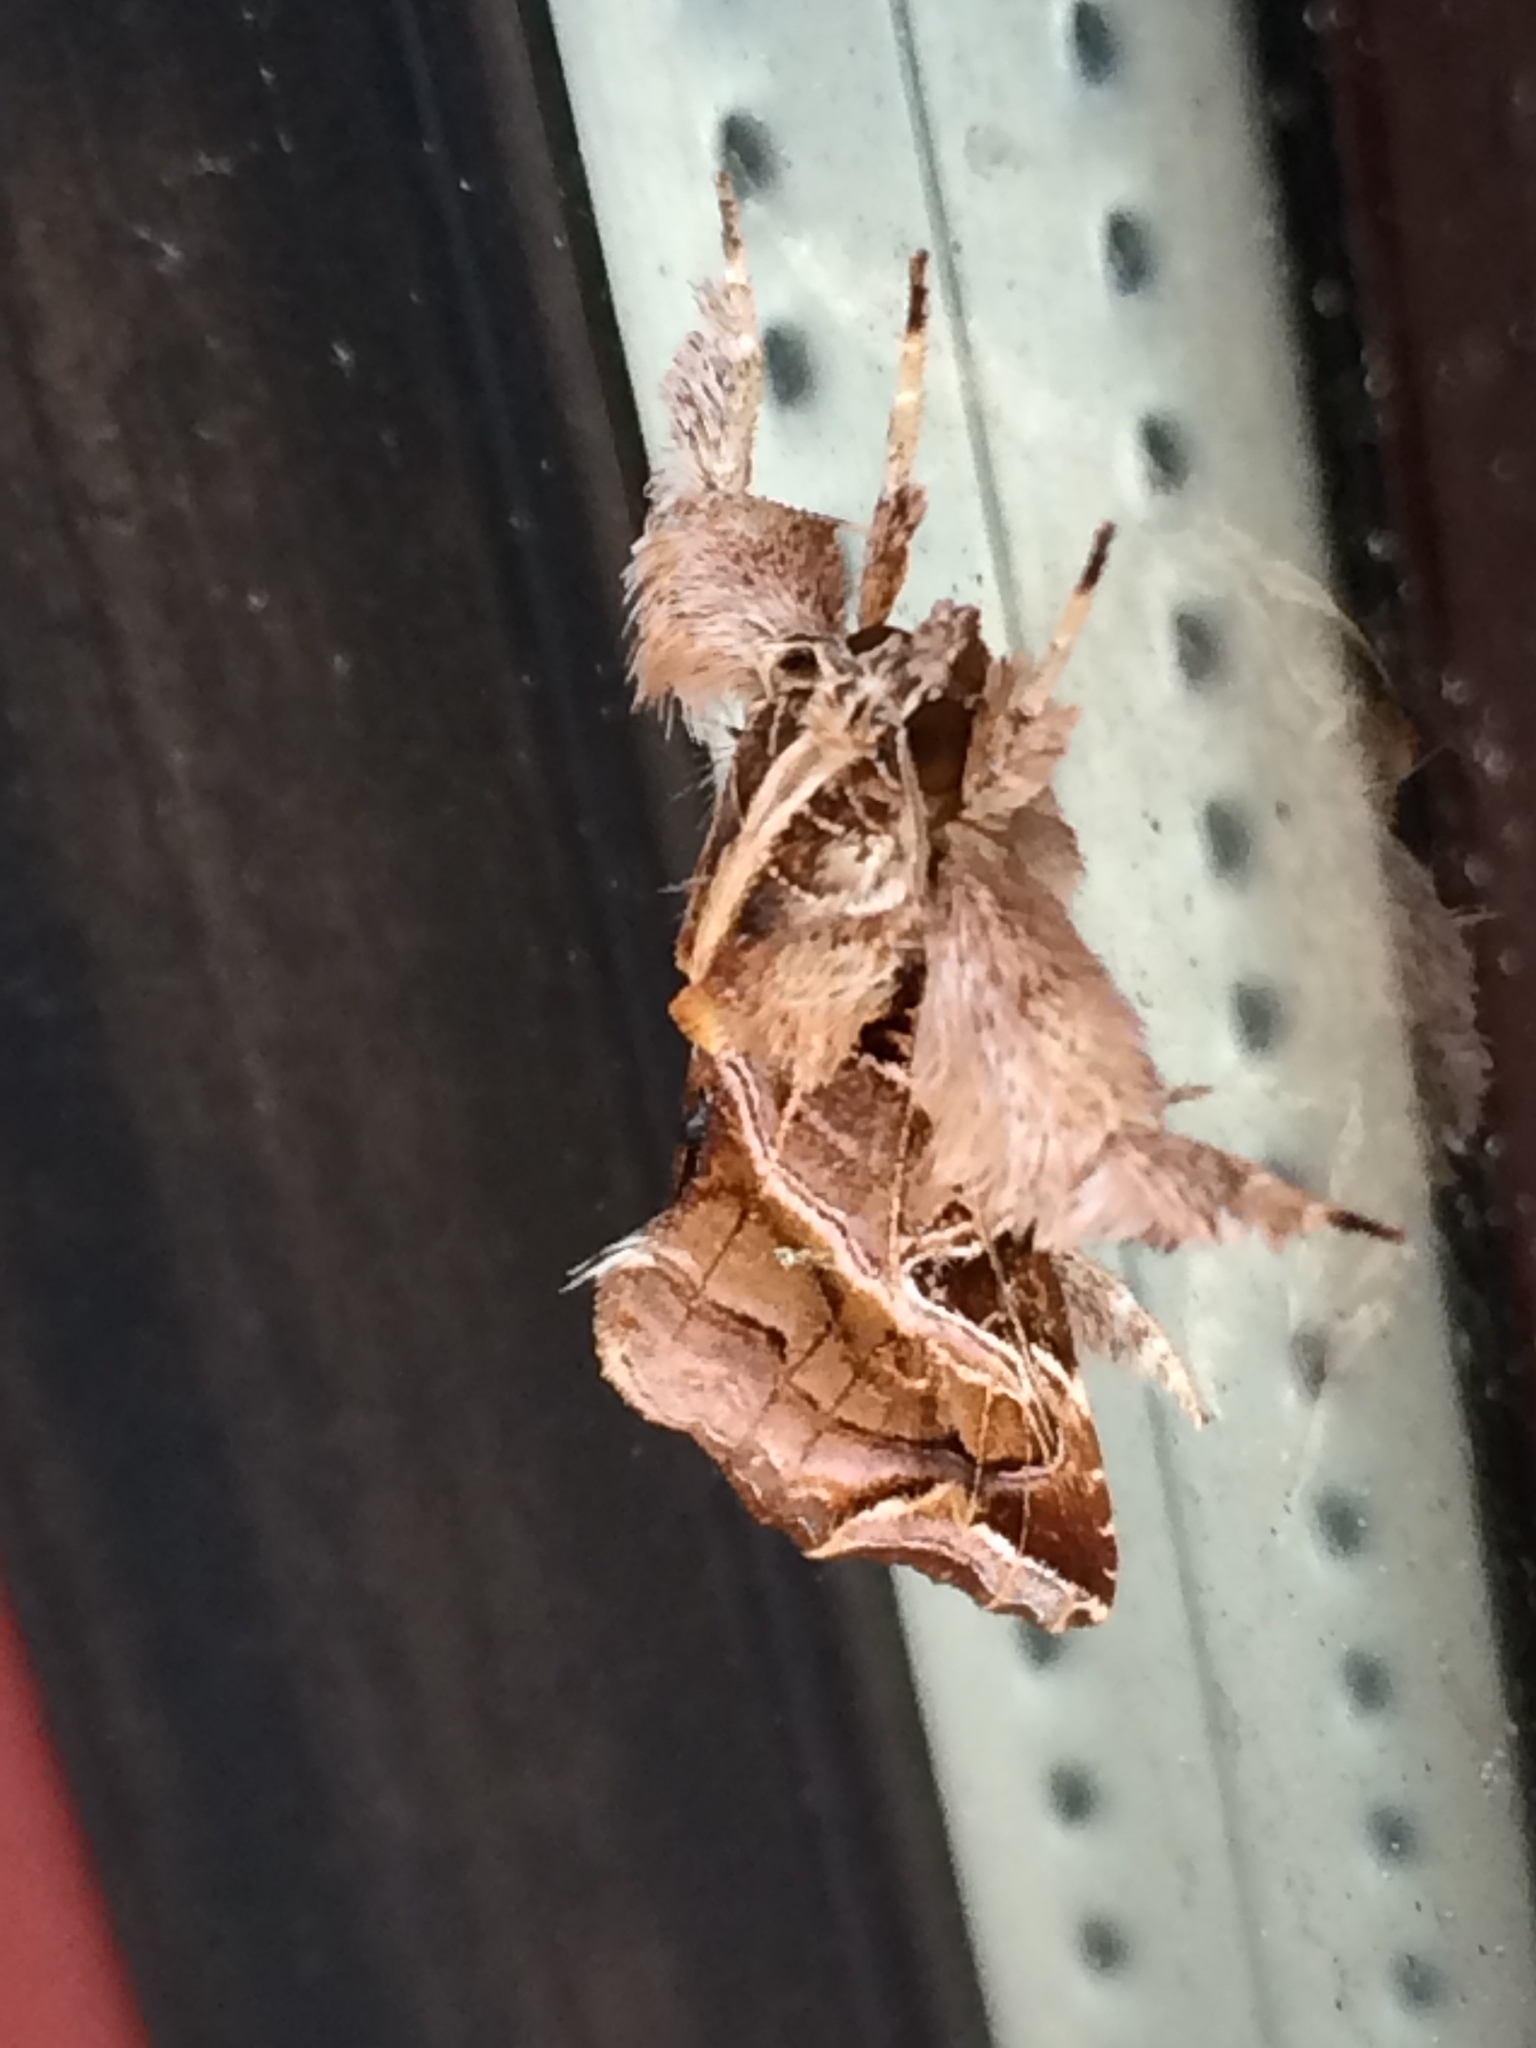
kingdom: Animalia
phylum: Arthropoda
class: Insecta
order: Lepidoptera
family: Noctuidae
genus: Callopistria
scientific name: Callopistria floridensis
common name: Florida fern moth
